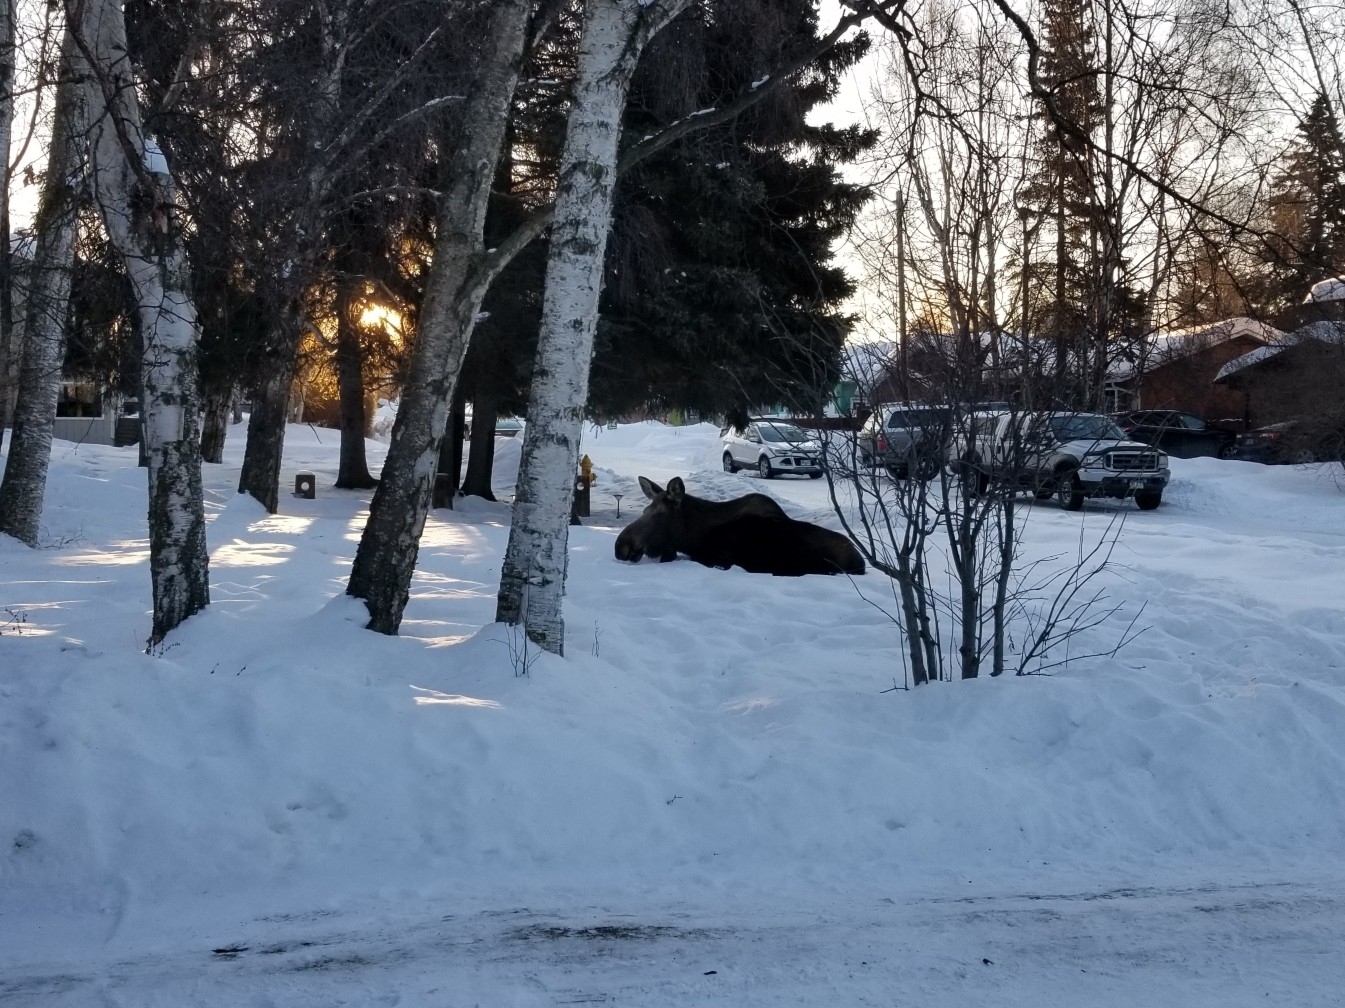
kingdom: Animalia
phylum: Chordata
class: Mammalia
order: Artiodactyla
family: Cervidae
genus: Alces
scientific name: Alces alces
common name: Moose
